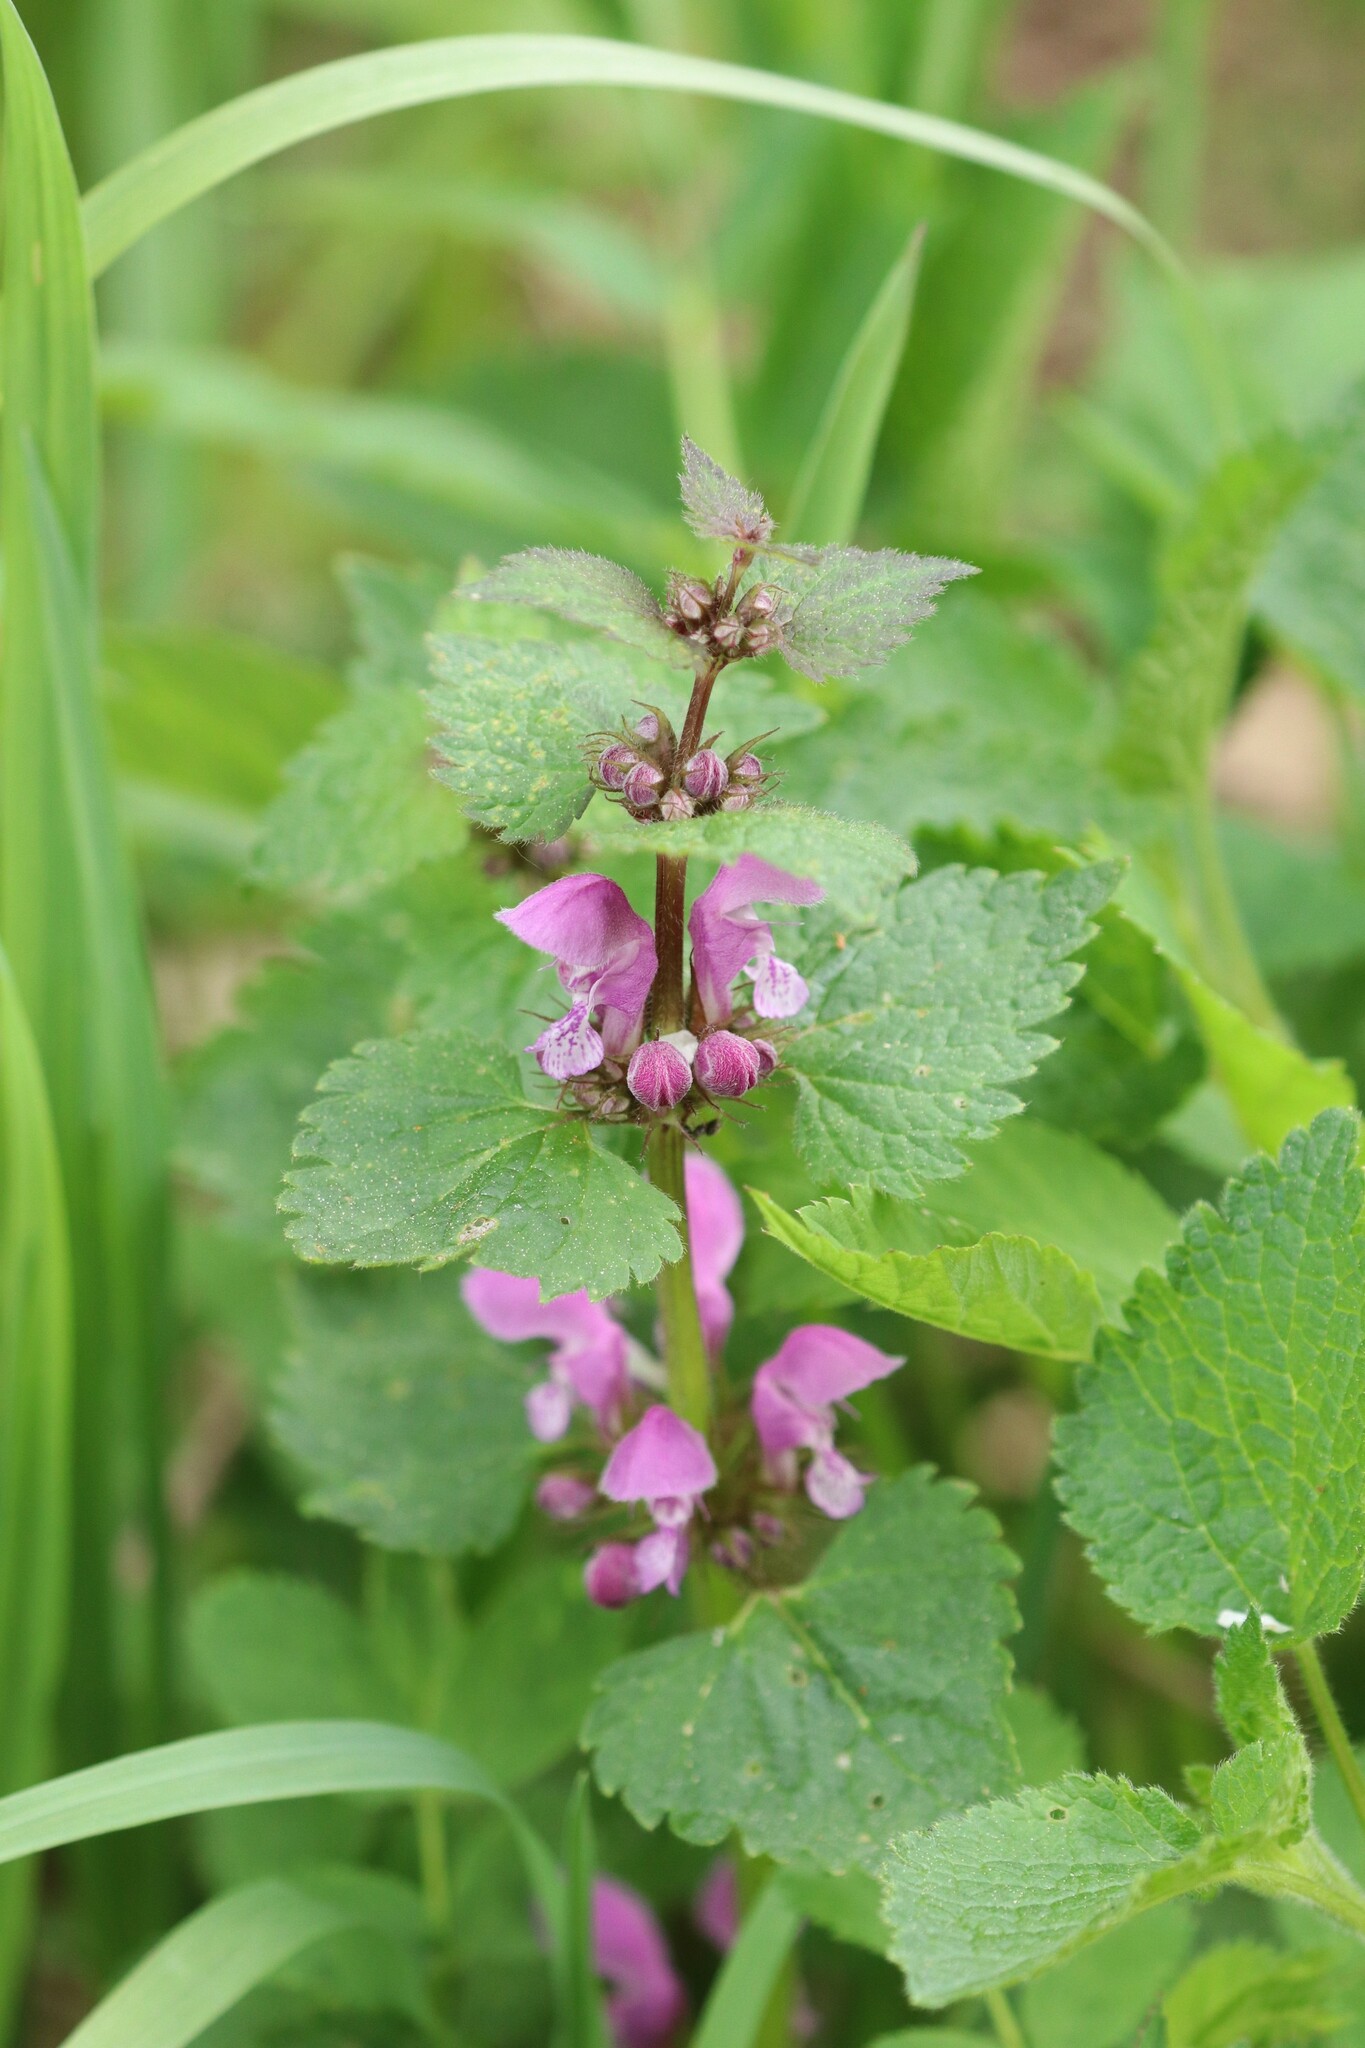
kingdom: Plantae
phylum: Tracheophyta
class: Magnoliopsida
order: Lamiales
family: Lamiaceae
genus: Lamium
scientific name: Lamium maculatum
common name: Spotted dead-nettle
